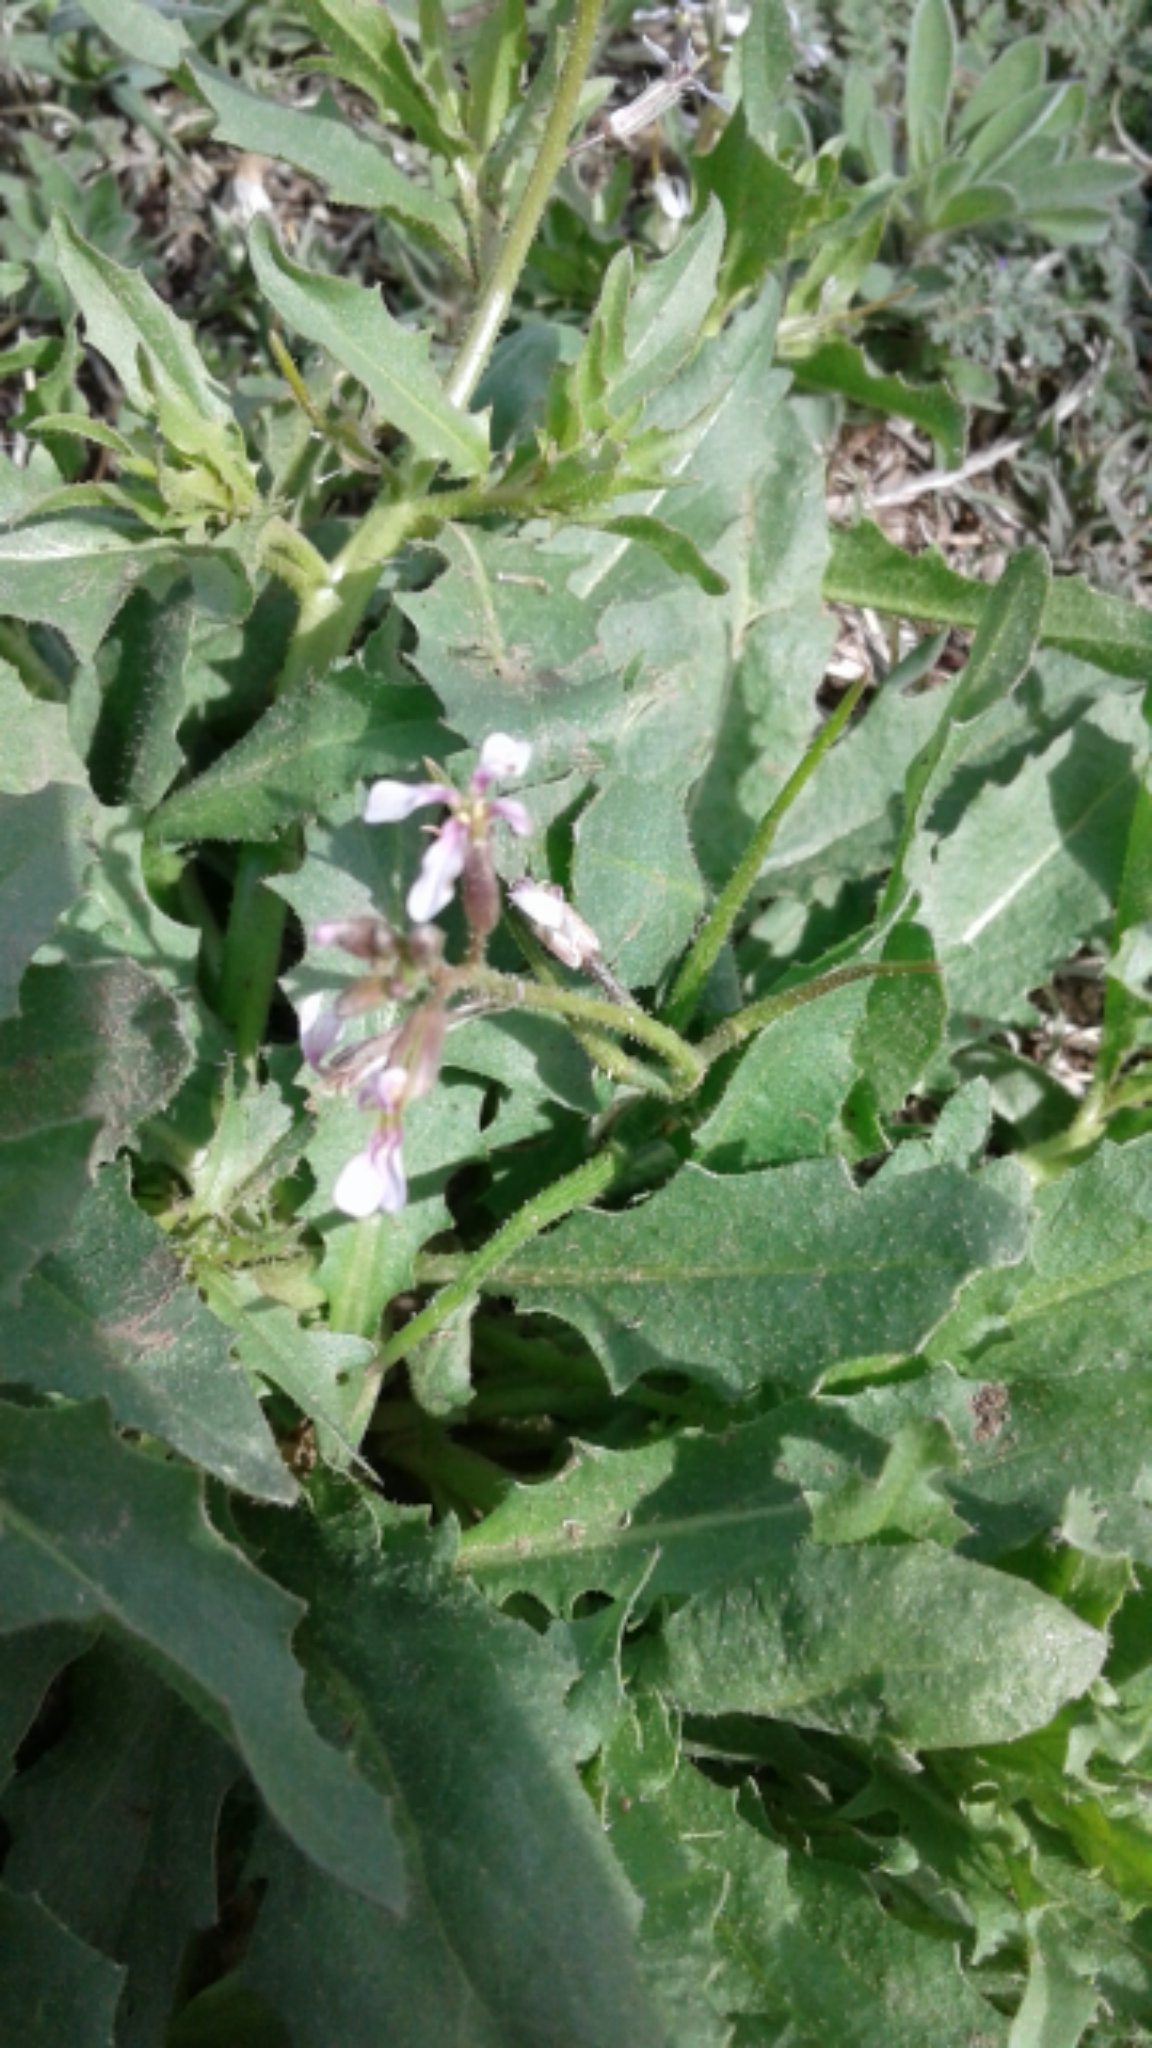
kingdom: Plantae
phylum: Tracheophyta
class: Magnoliopsida
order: Brassicales
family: Brassicaceae
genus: Chorispora
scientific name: Chorispora tenella
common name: Crossflower
